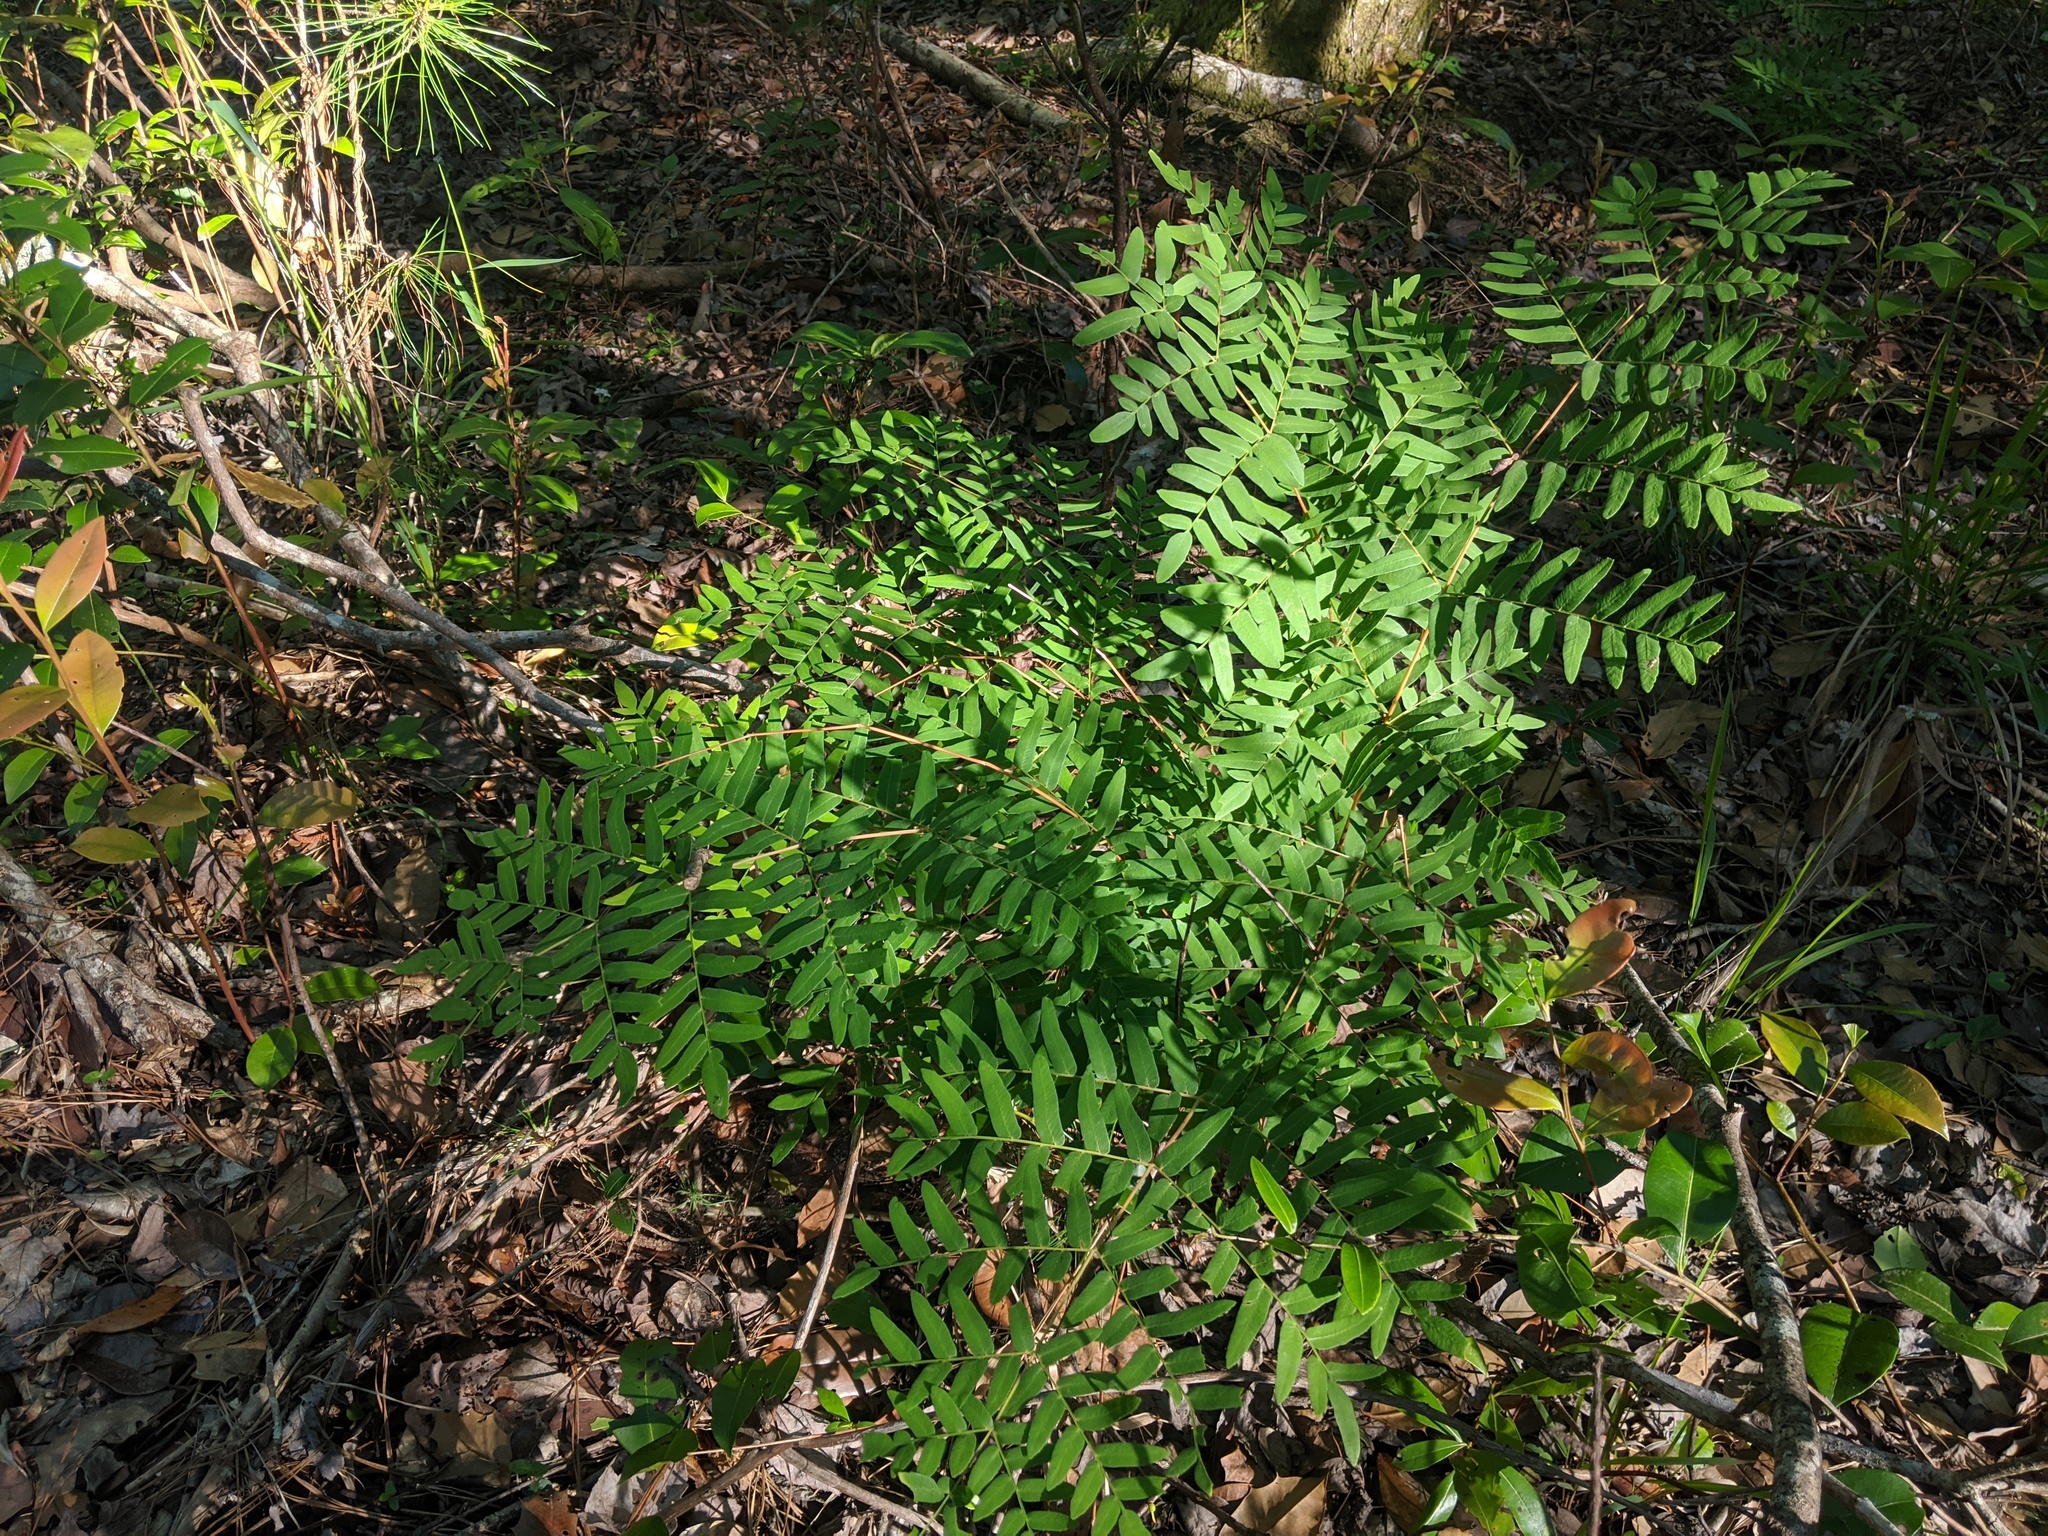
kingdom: Plantae
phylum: Tracheophyta
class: Polypodiopsida
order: Osmundales
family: Osmundaceae
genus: Osmunda
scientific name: Osmunda spectabilis
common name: American royal fern
